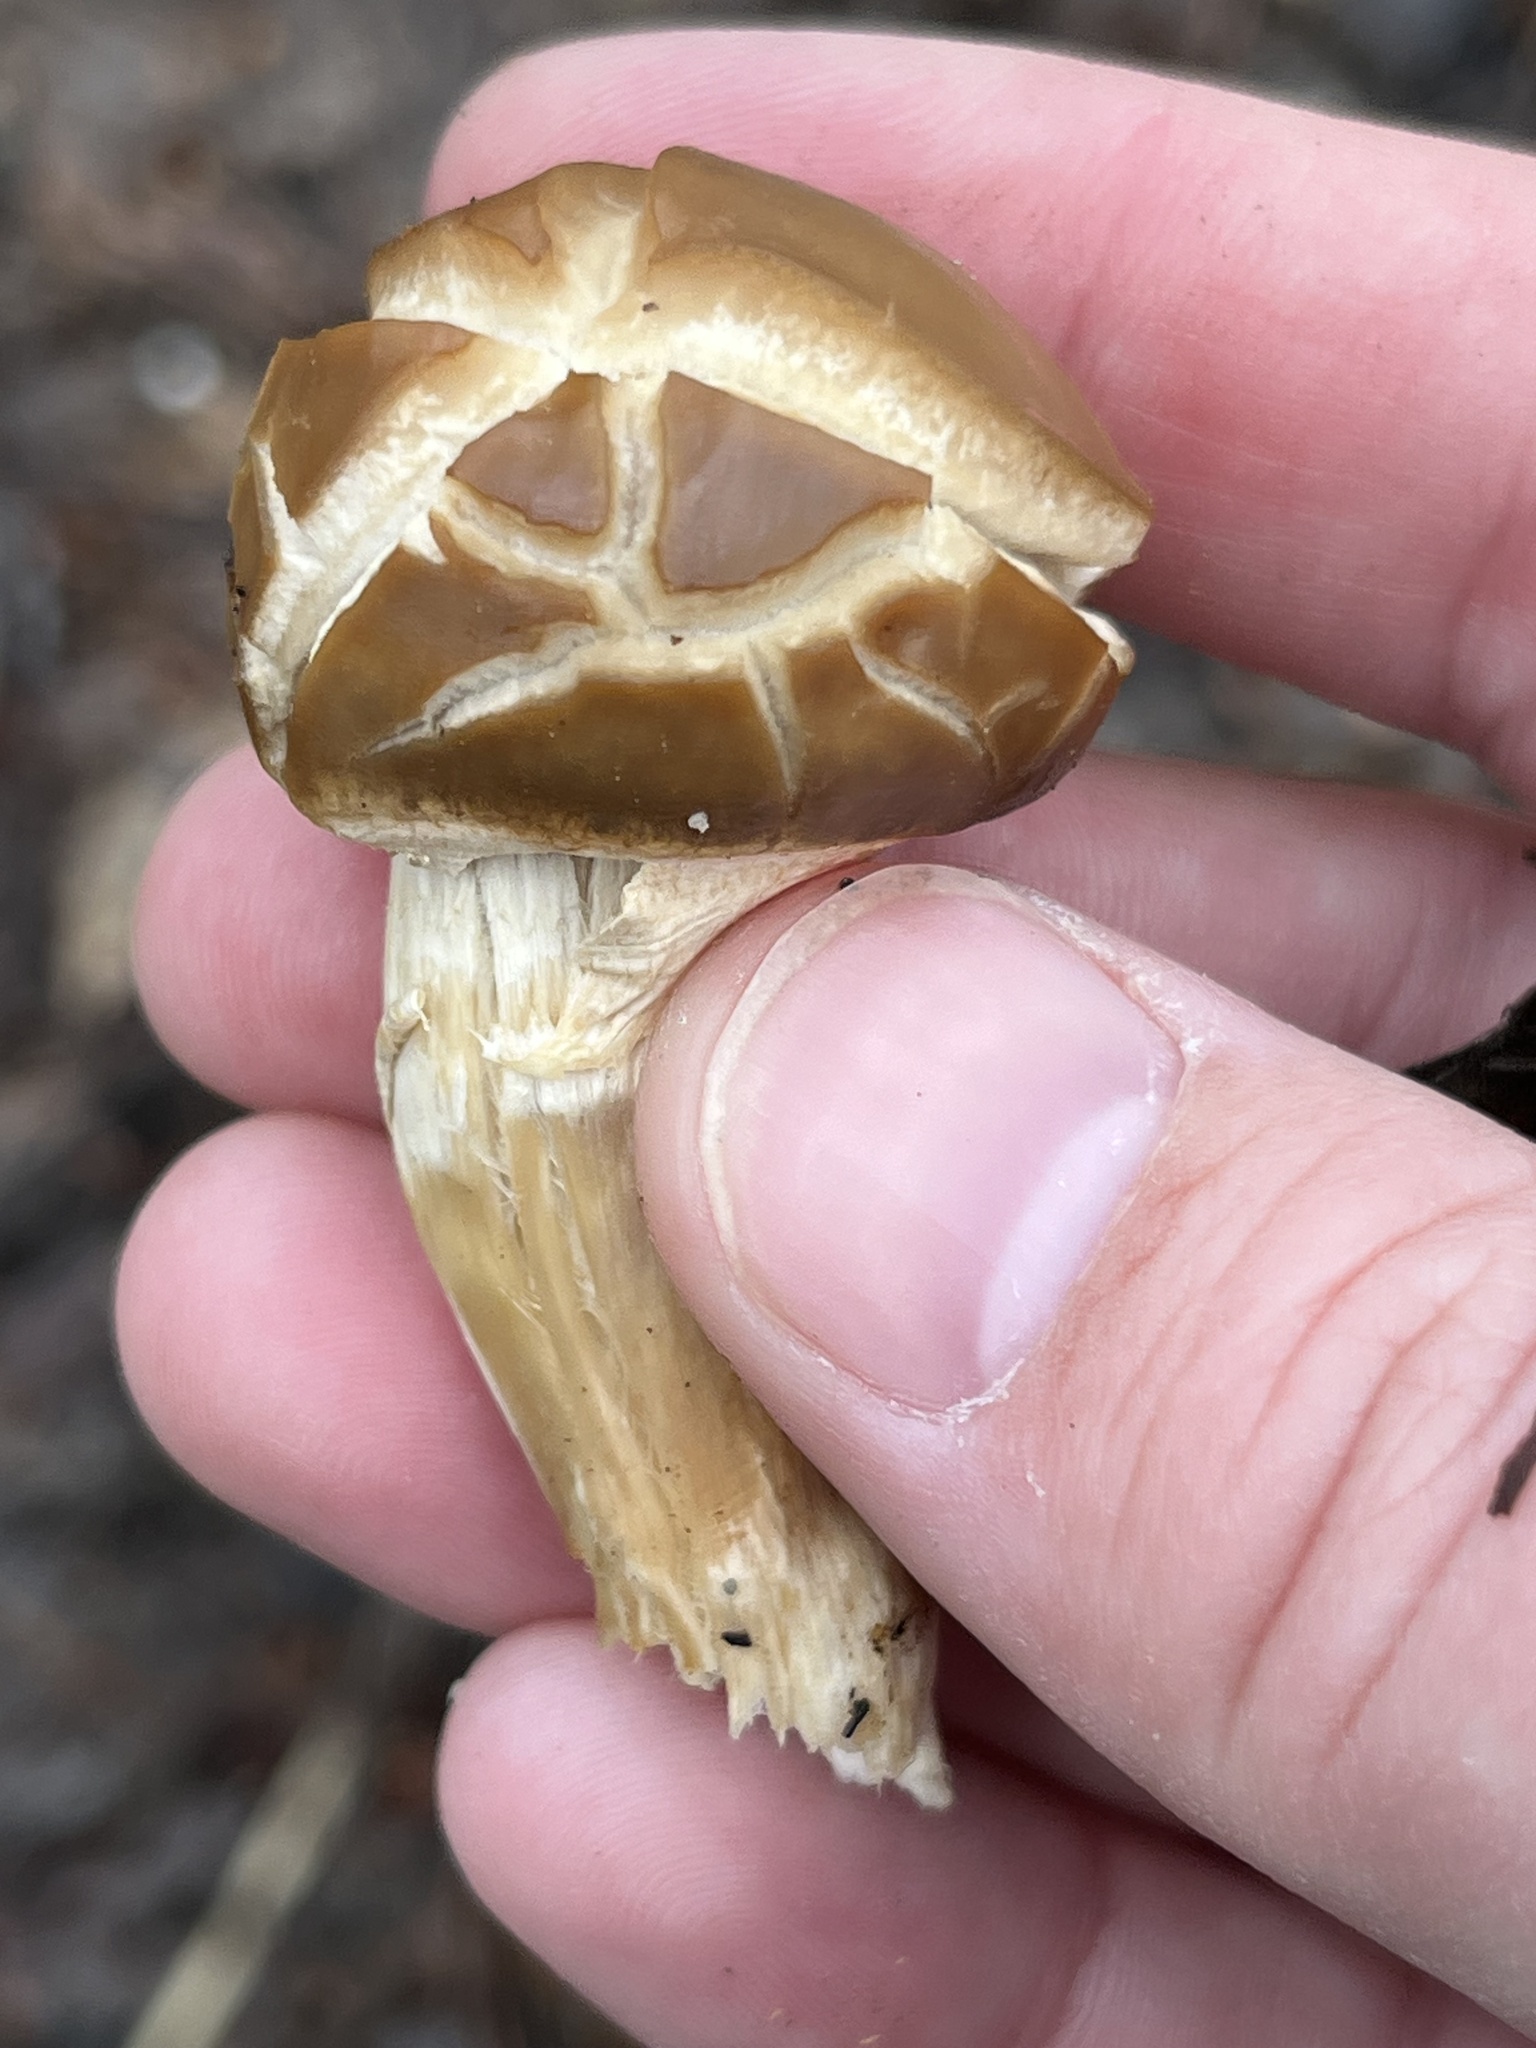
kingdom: Fungi
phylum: Basidiomycota
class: Agaricomycetes
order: Agaricales
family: Strophariaceae
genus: Agrocybe
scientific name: Agrocybe praecox
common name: Spring fieldcap
